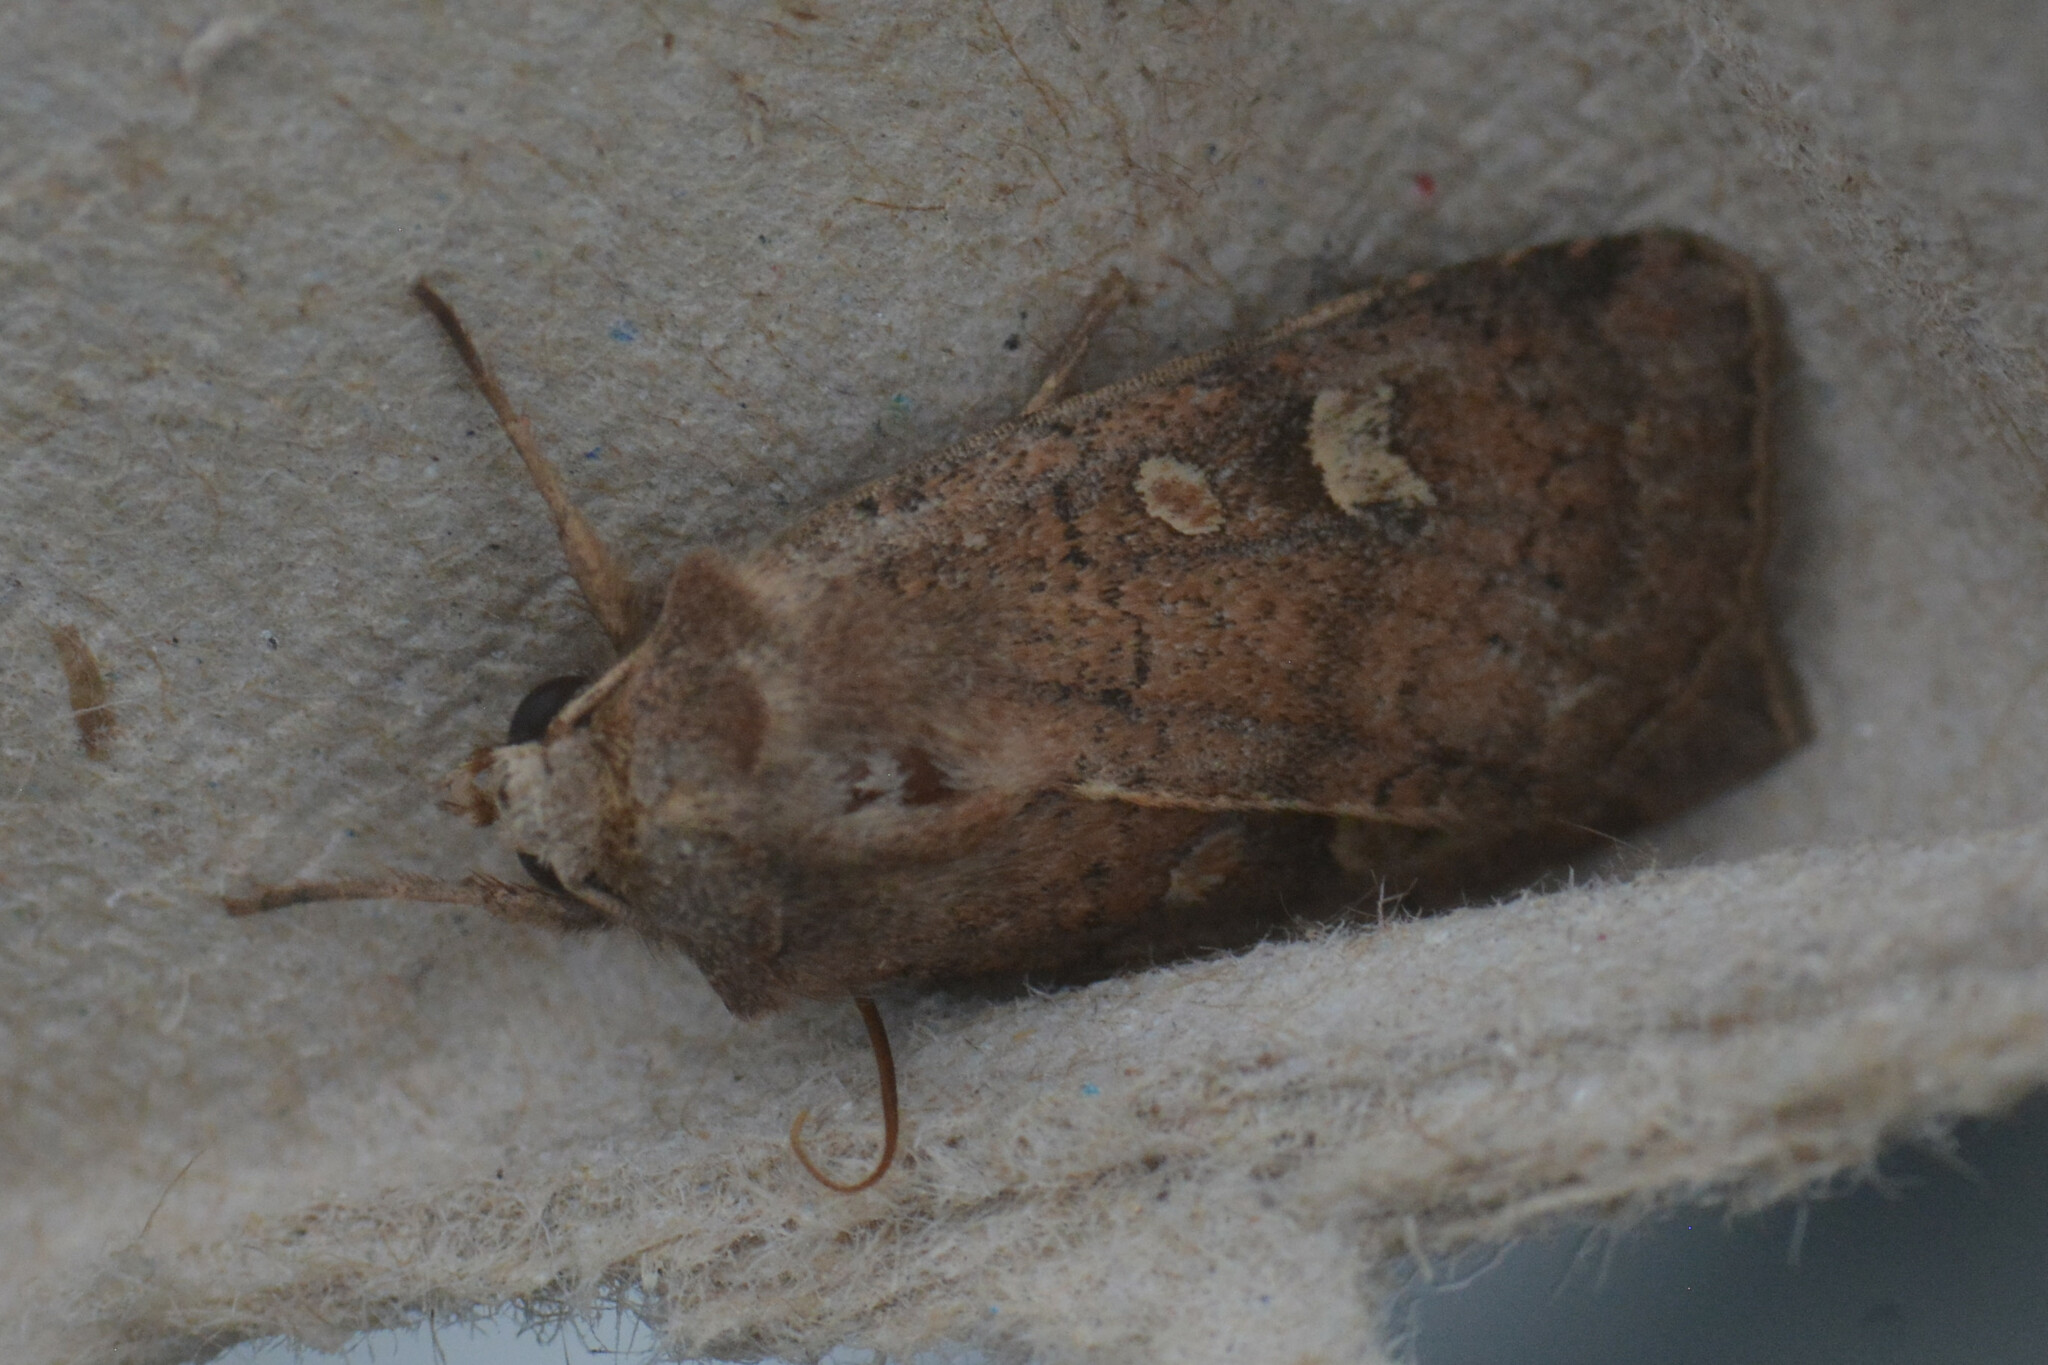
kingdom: Animalia
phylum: Arthropoda
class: Insecta
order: Lepidoptera
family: Noctuidae
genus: Xestia
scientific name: Xestia xanthographa
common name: Square-spot rustic
